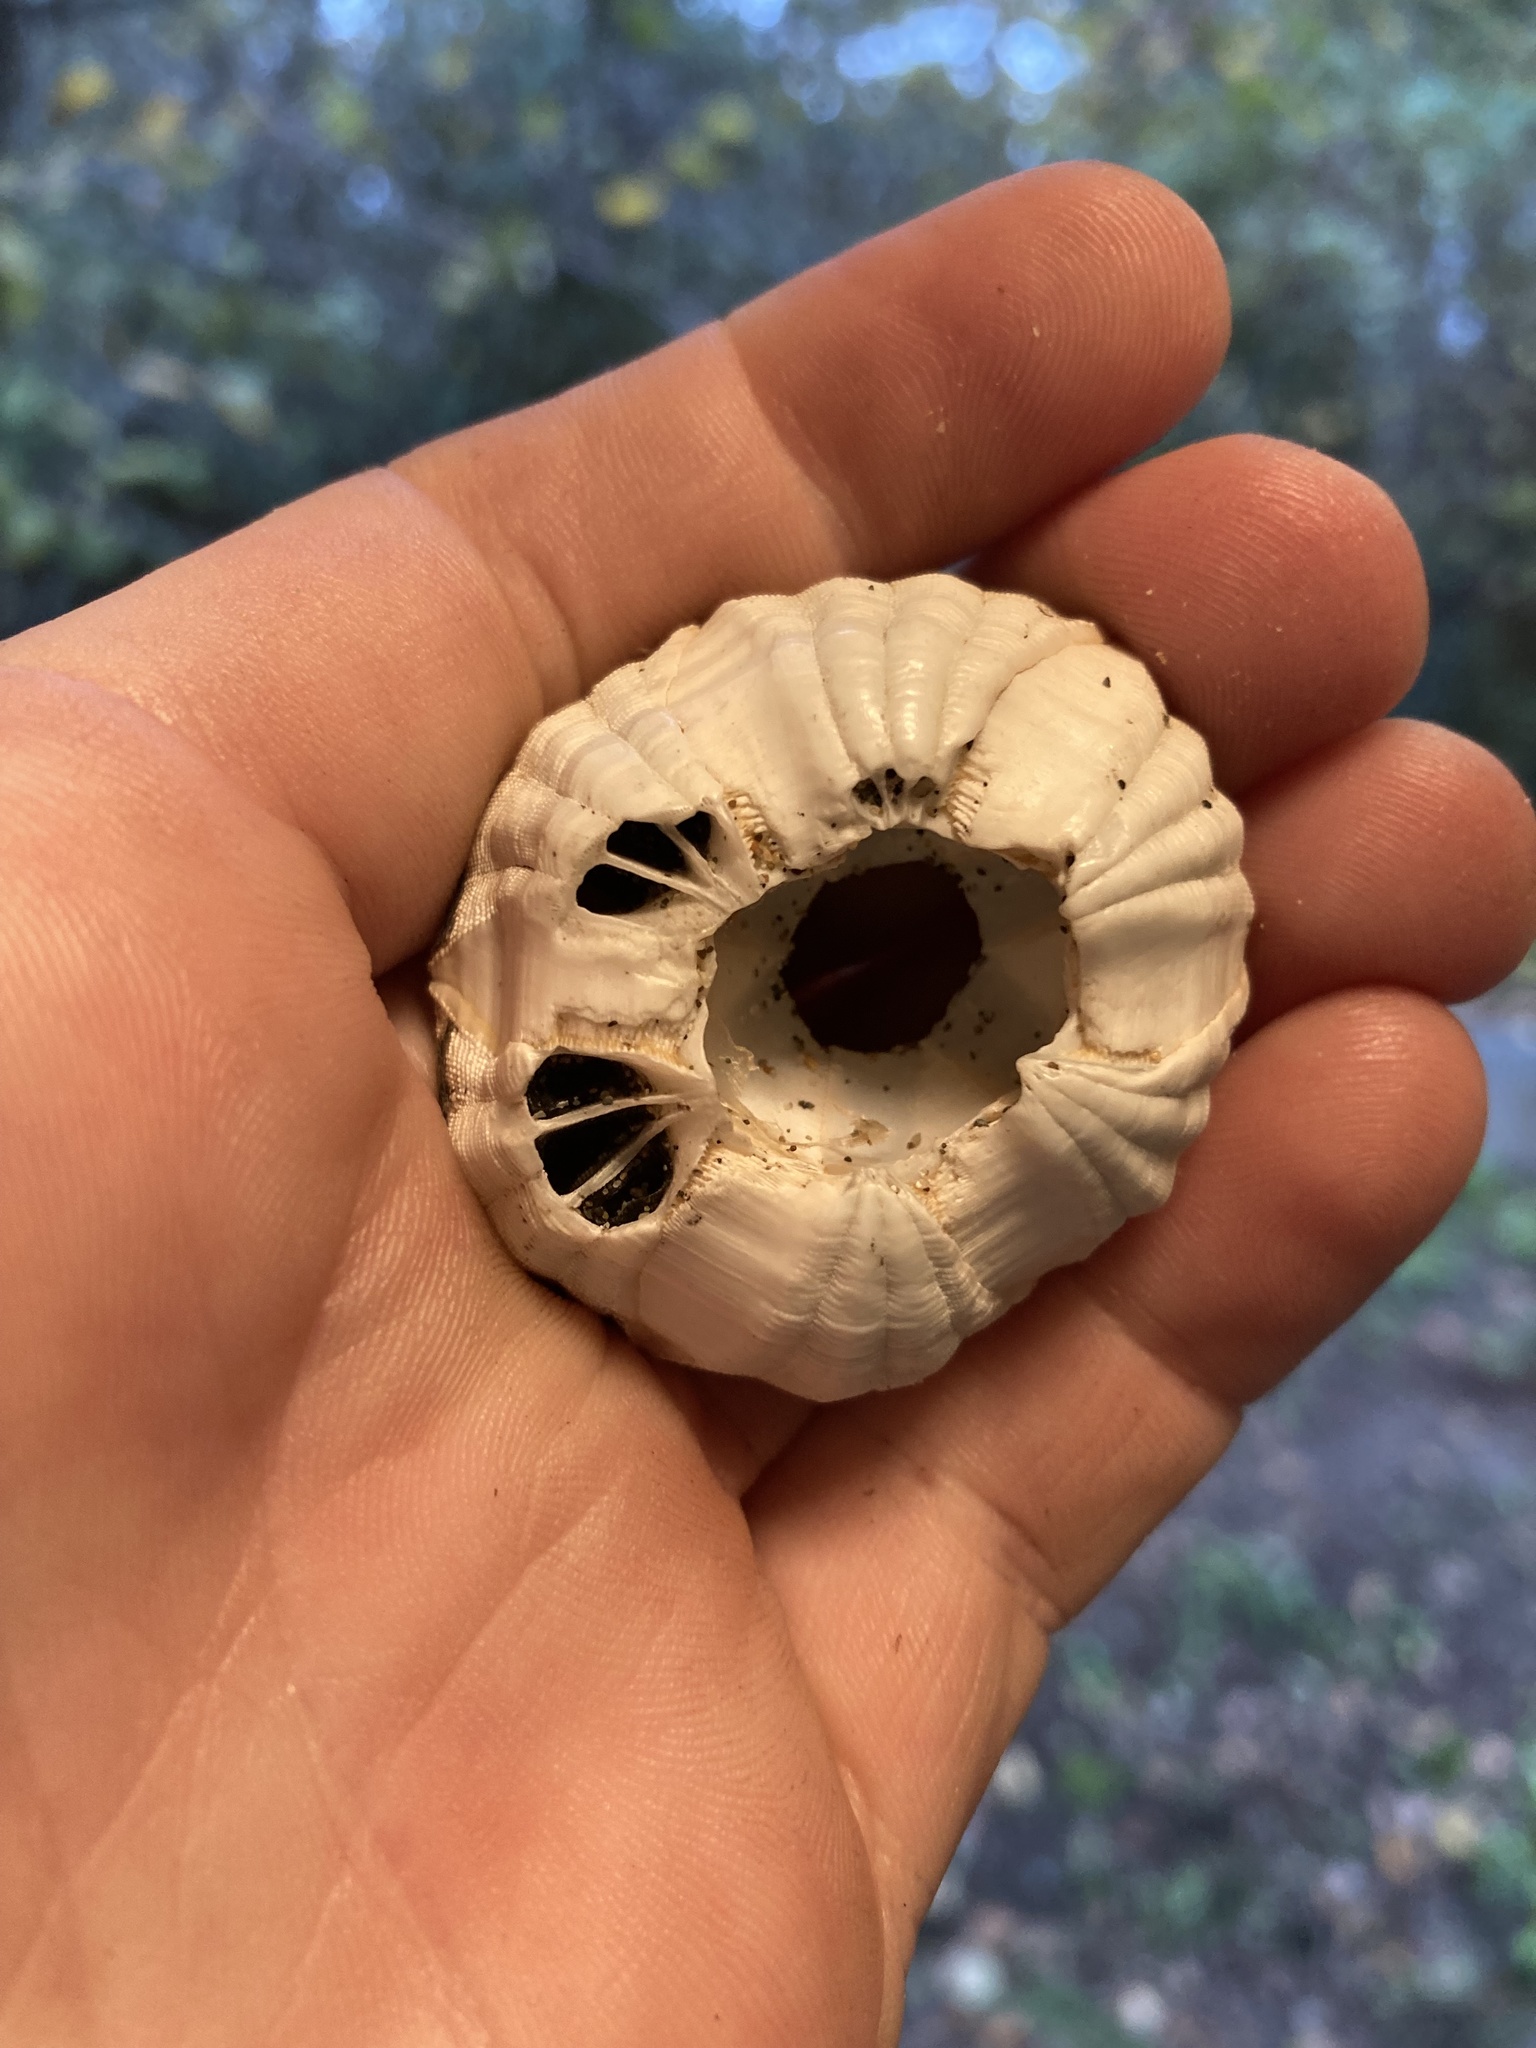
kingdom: Animalia
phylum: Arthropoda
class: Maxillopoda
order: Sessilia
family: Coronulidae
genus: Coronula
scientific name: Coronula diadema
